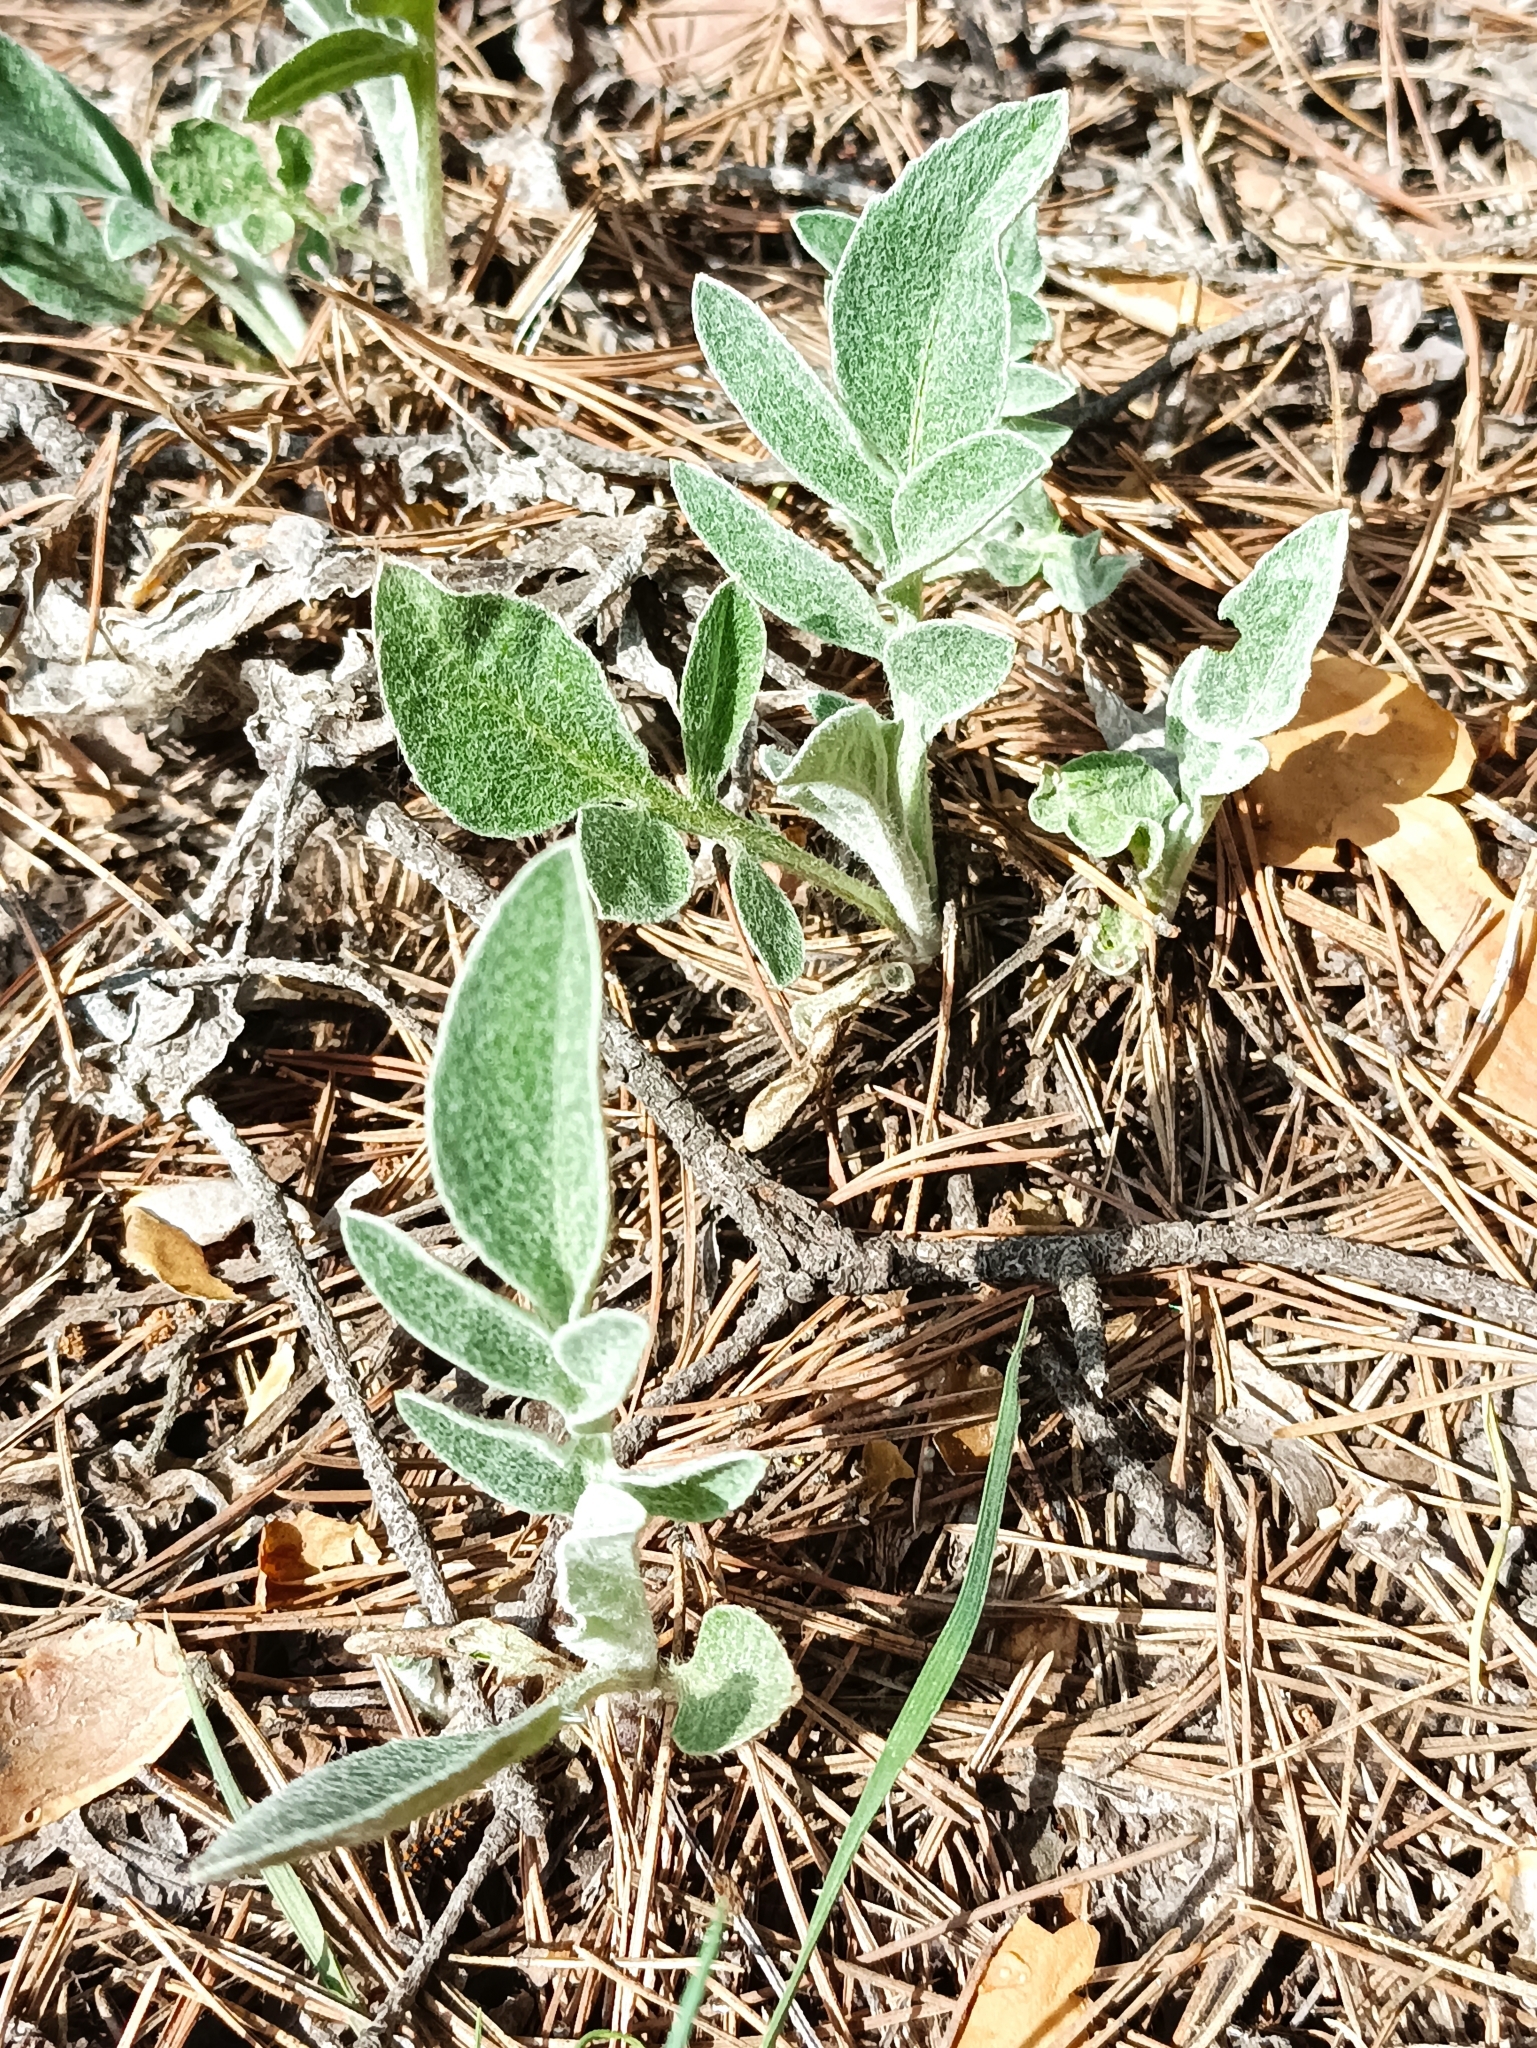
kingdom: Plantae
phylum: Tracheophyta
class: Magnoliopsida
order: Asterales
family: Asteraceae
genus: Psephellus
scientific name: Psephellus sumensis
